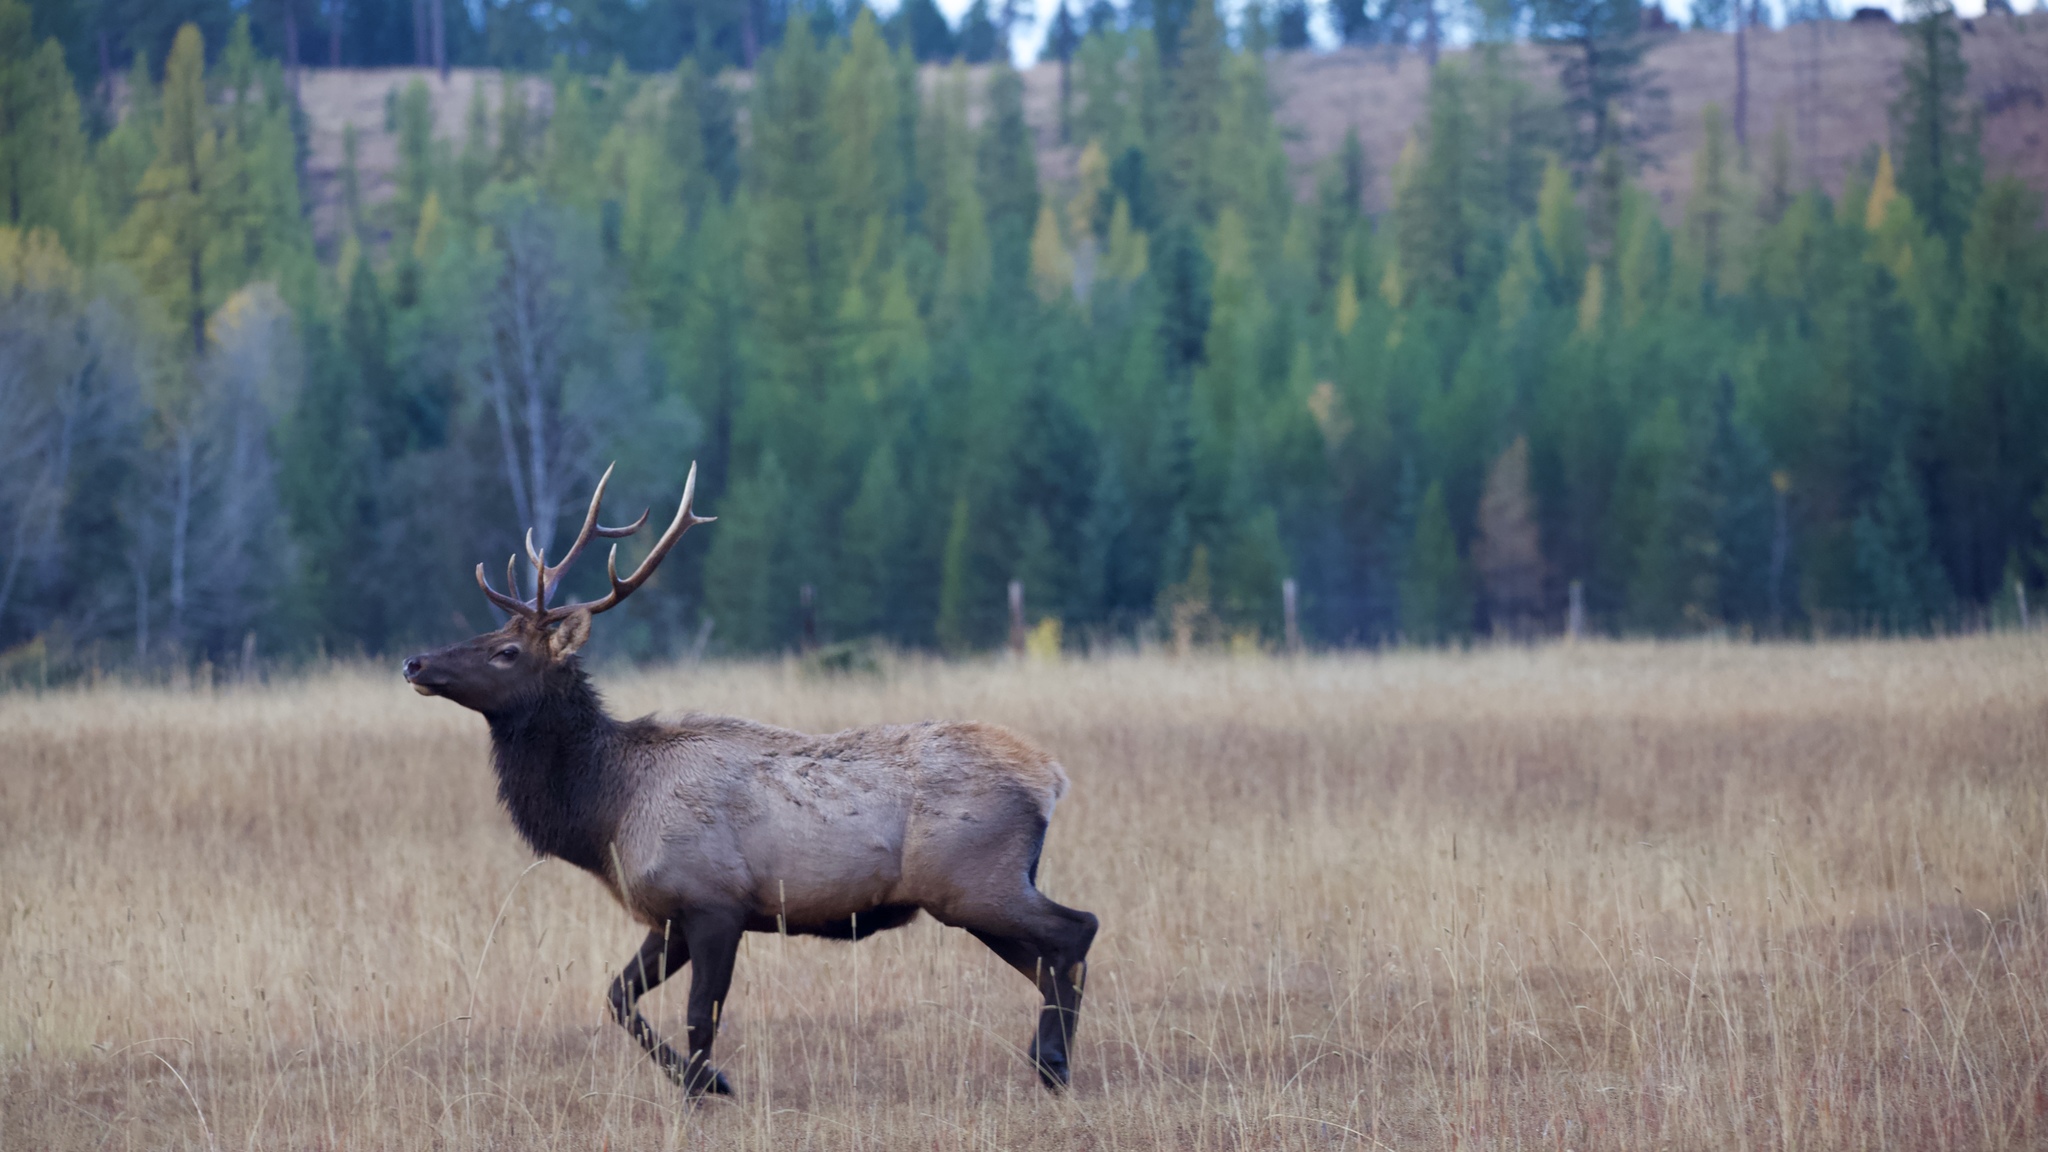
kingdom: Animalia
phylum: Chordata
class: Mammalia
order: Artiodactyla
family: Cervidae
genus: Cervus
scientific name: Cervus elaphus
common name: Red deer
